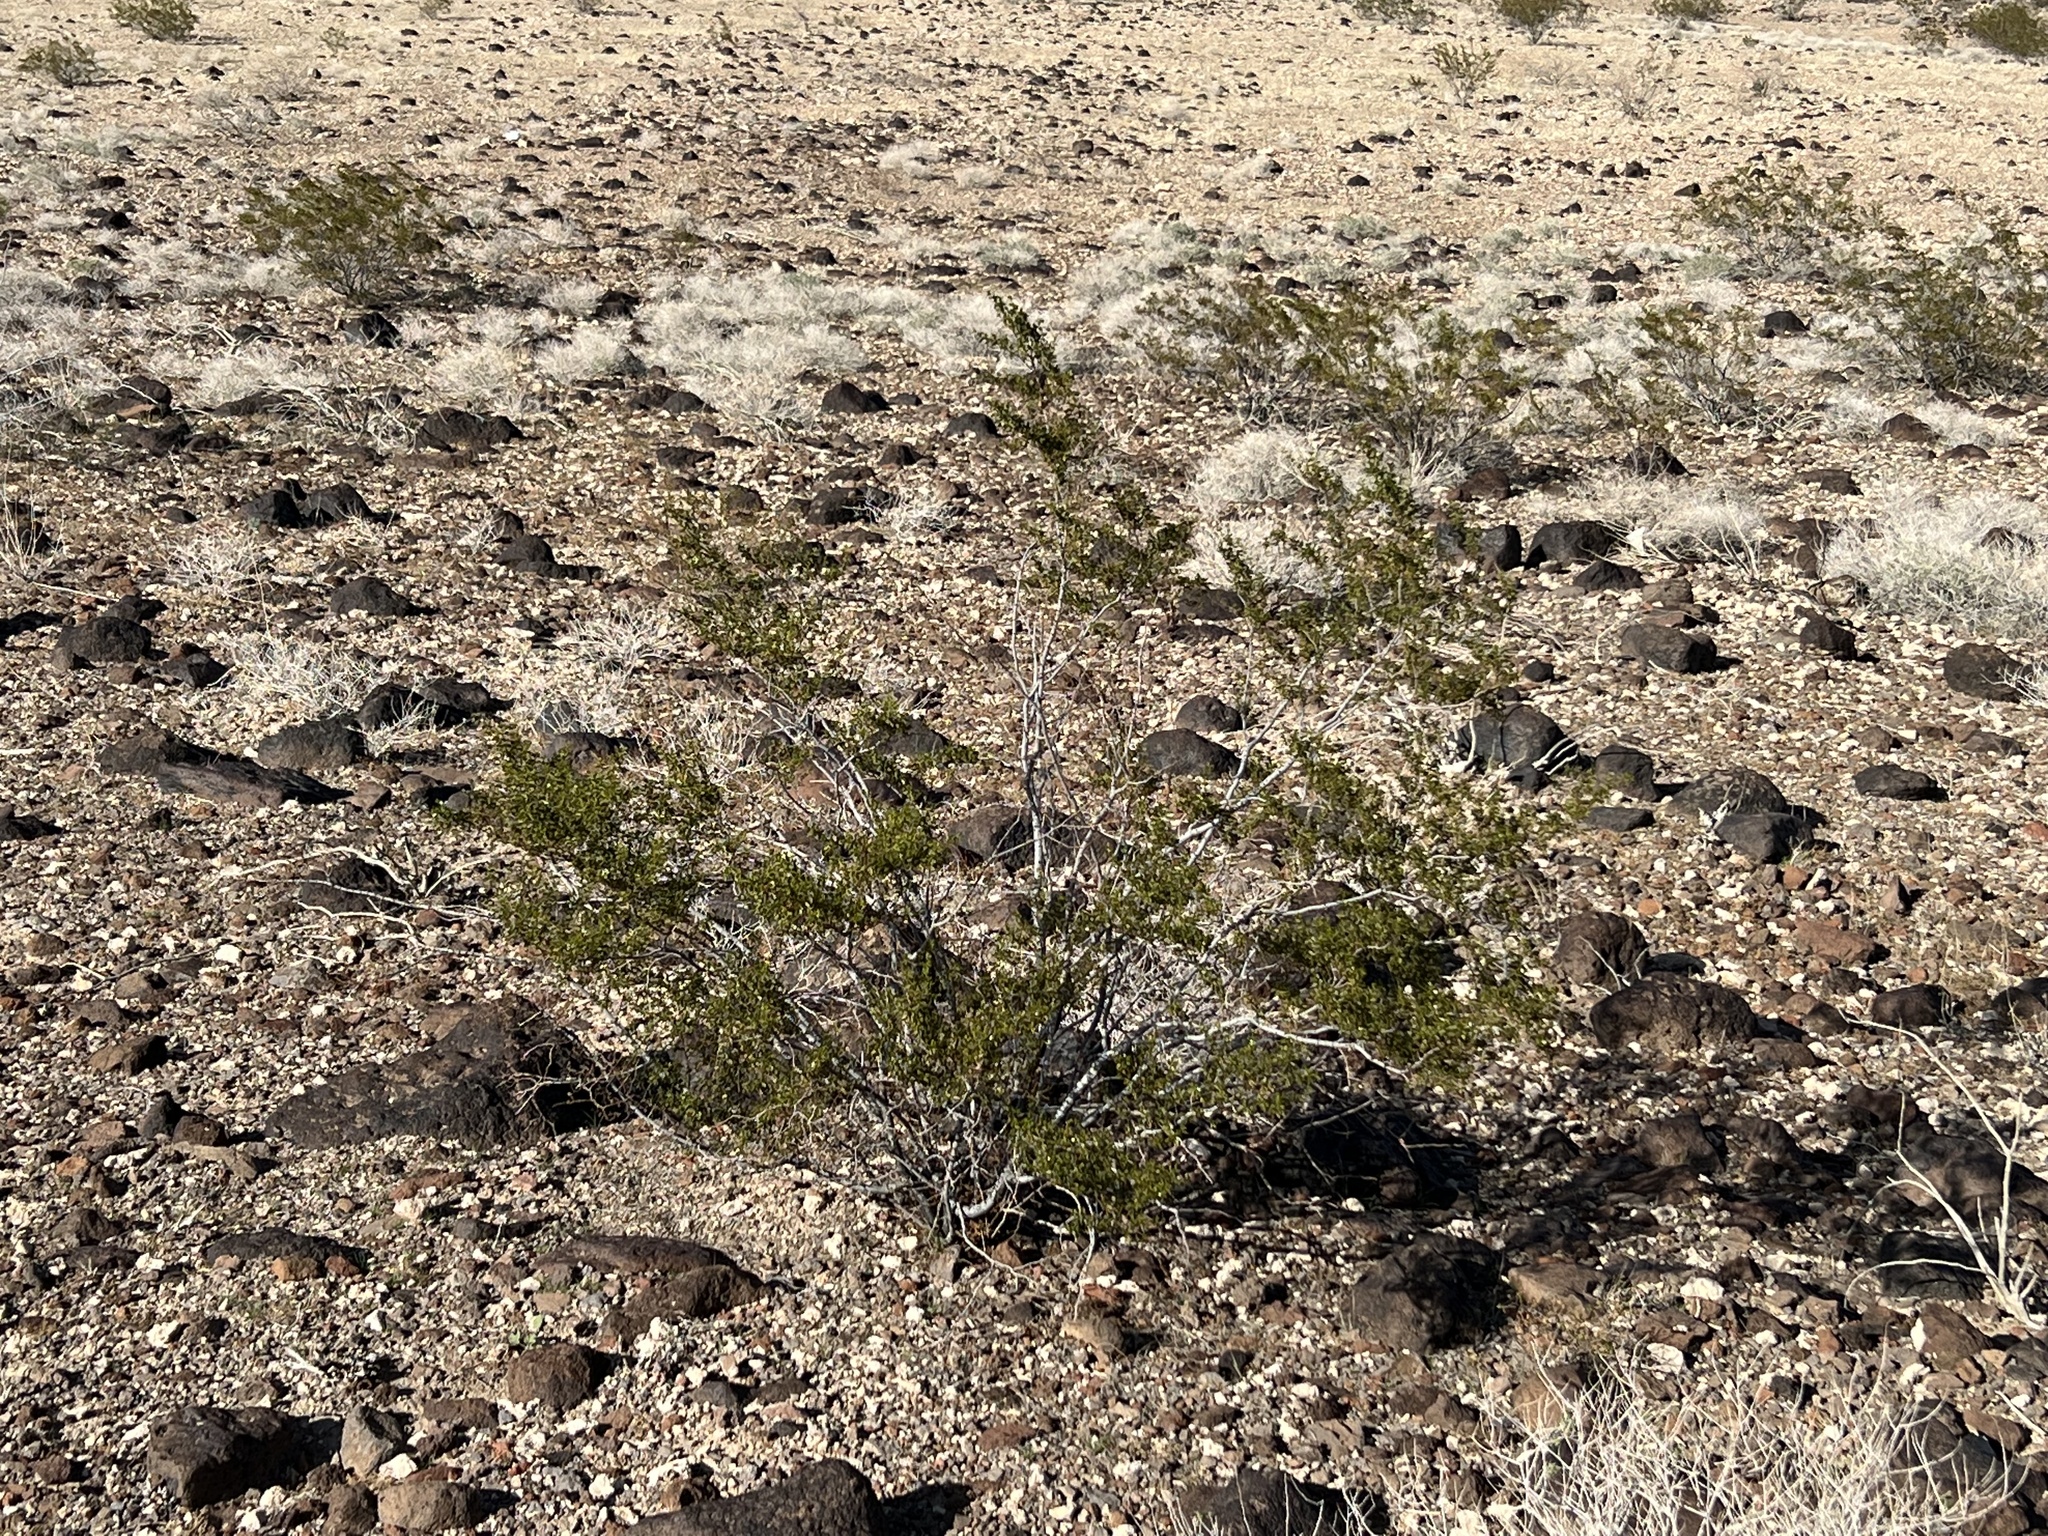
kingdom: Plantae
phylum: Tracheophyta
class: Magnoliopsida
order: Zygophyllales
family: Zygophyllaceae
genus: Larrea
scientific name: Larrea tridentata
